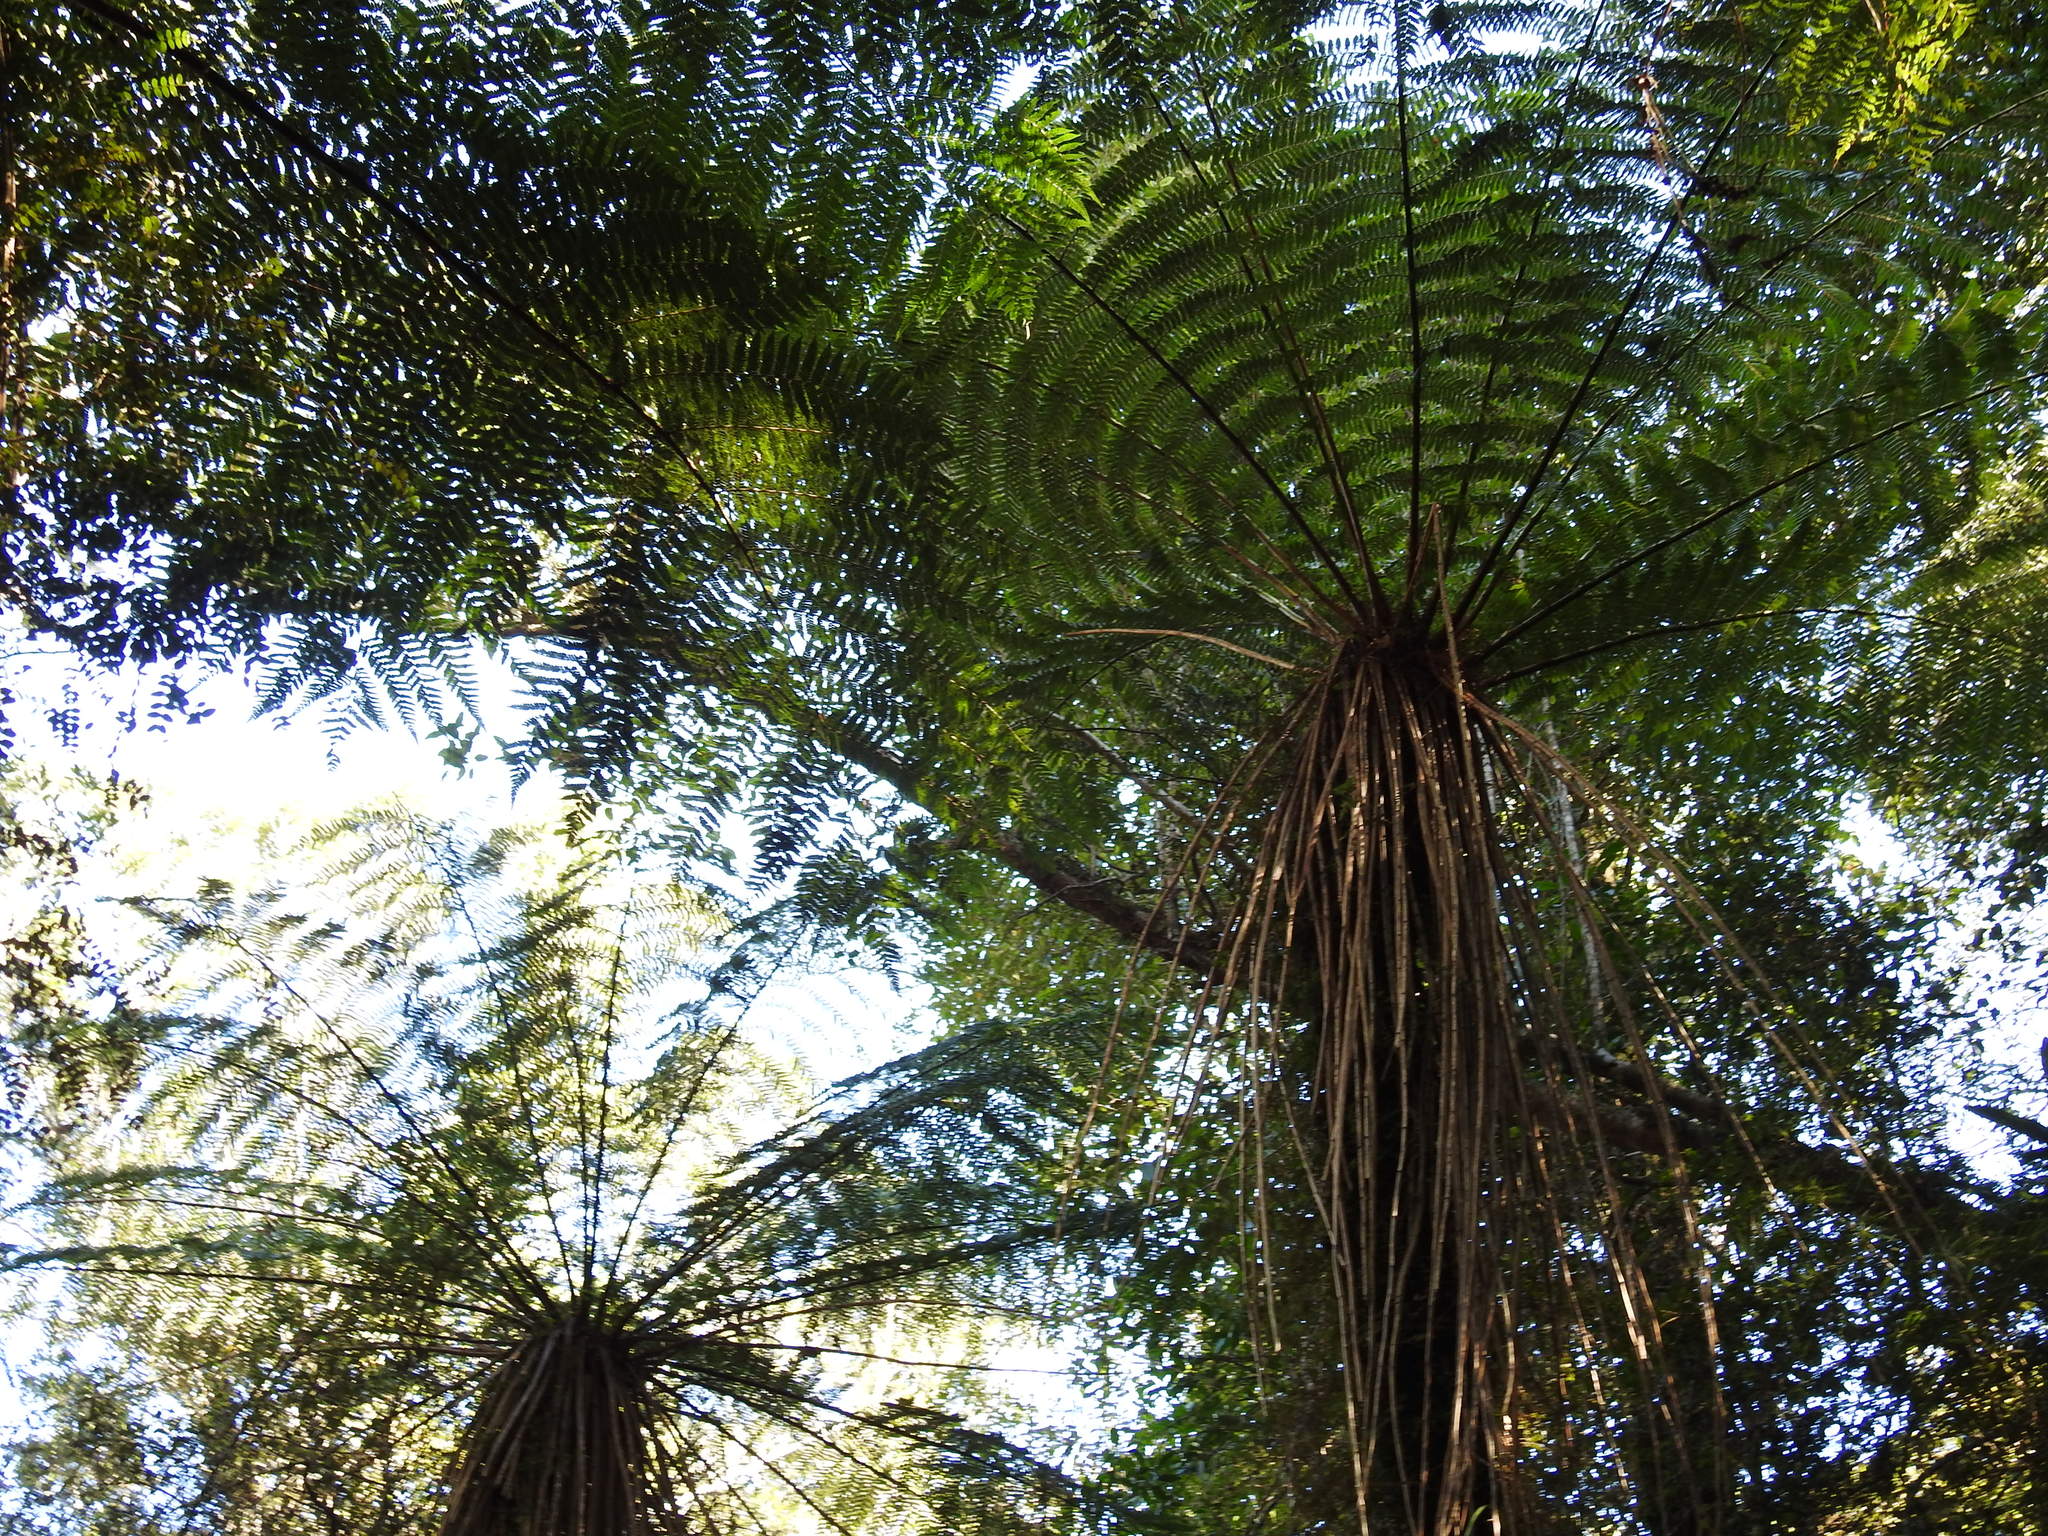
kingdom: Plantae
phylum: Tracheophyta
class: Polypodiopsida
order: Cyatheales
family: Cyatheaceae
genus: Alsophila
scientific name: Alsophila smithii
